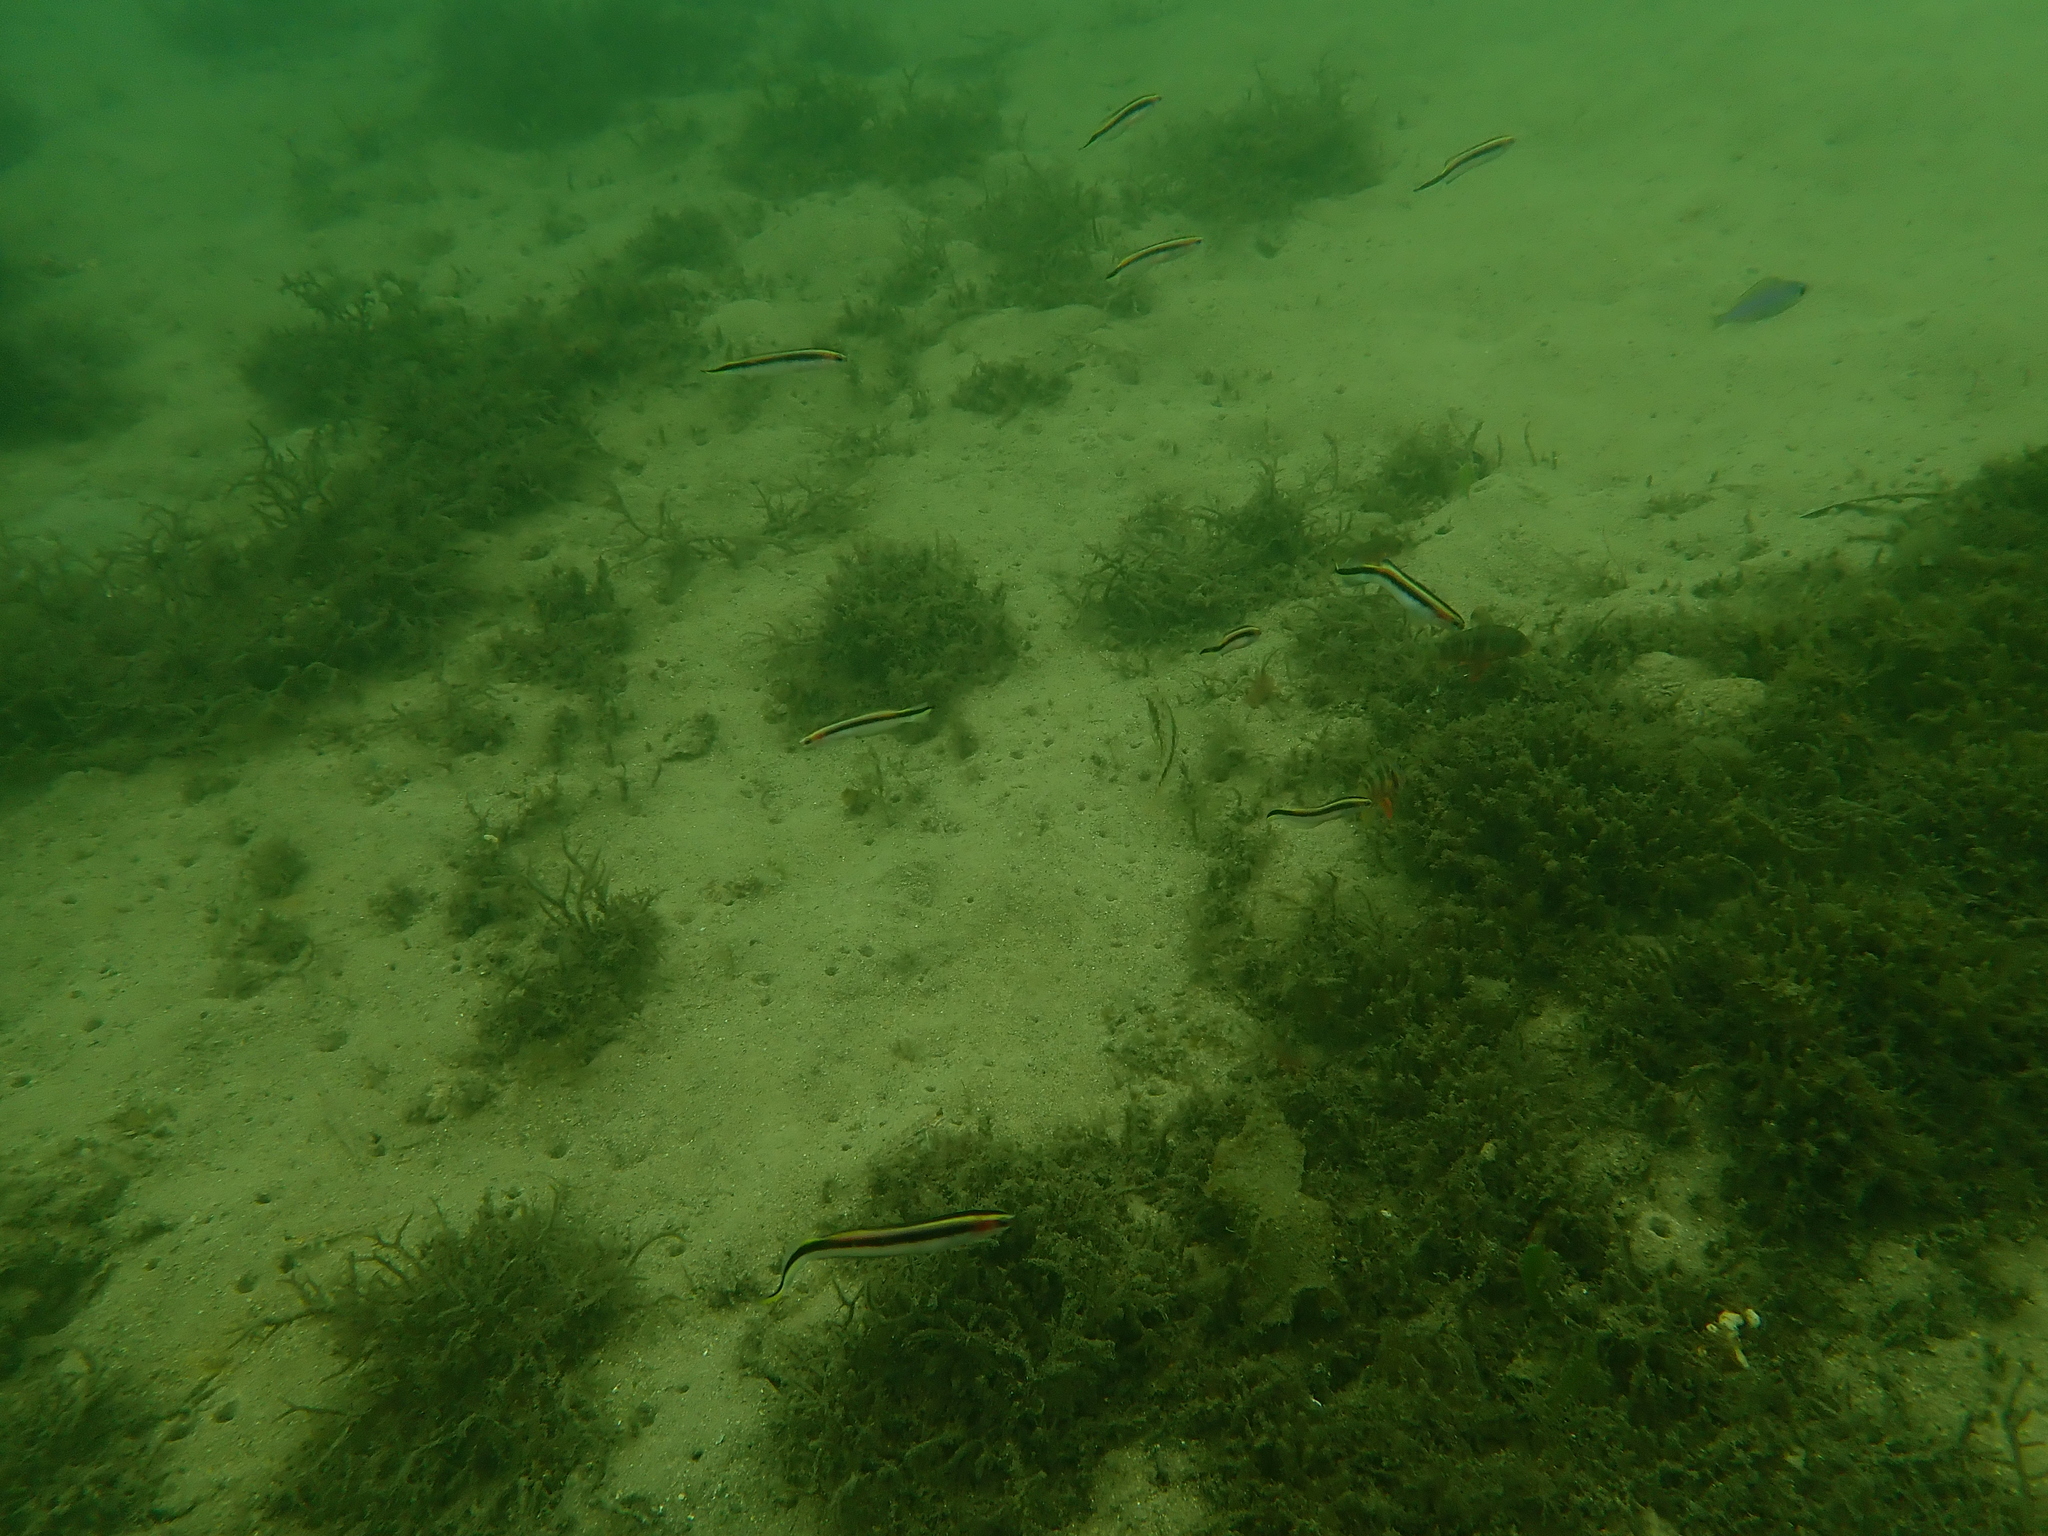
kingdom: Animalia
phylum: Chordata
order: Perciformes
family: Plesiopidae
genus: Trachinops
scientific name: Trachinops taeniatus
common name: Eastern hulafish
